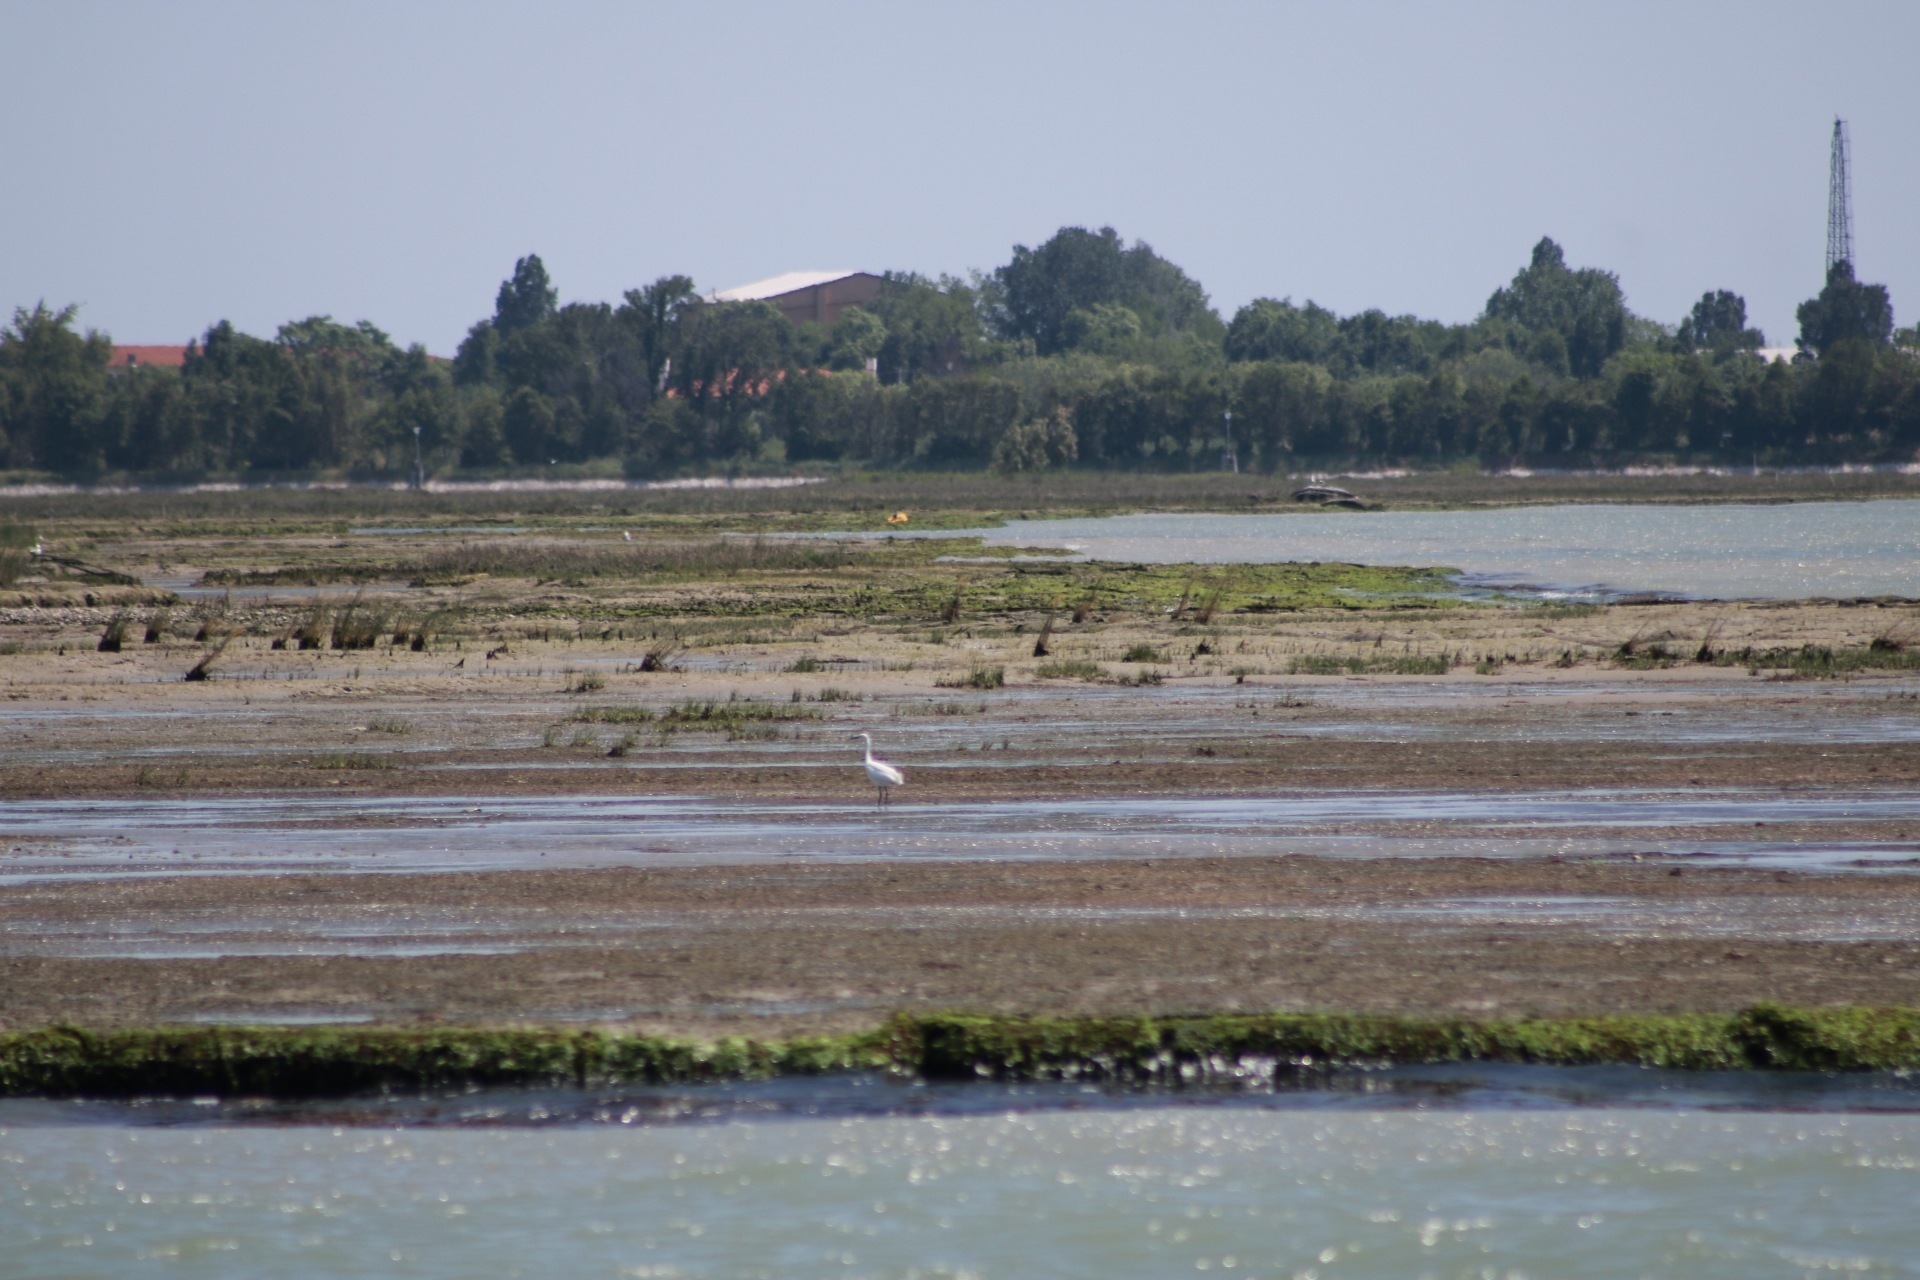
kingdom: Animalia
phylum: Chordata
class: Aves
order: Pelecaniformes
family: Ardeidae
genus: Egretta
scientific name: Egretta garzetta
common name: Little egret
